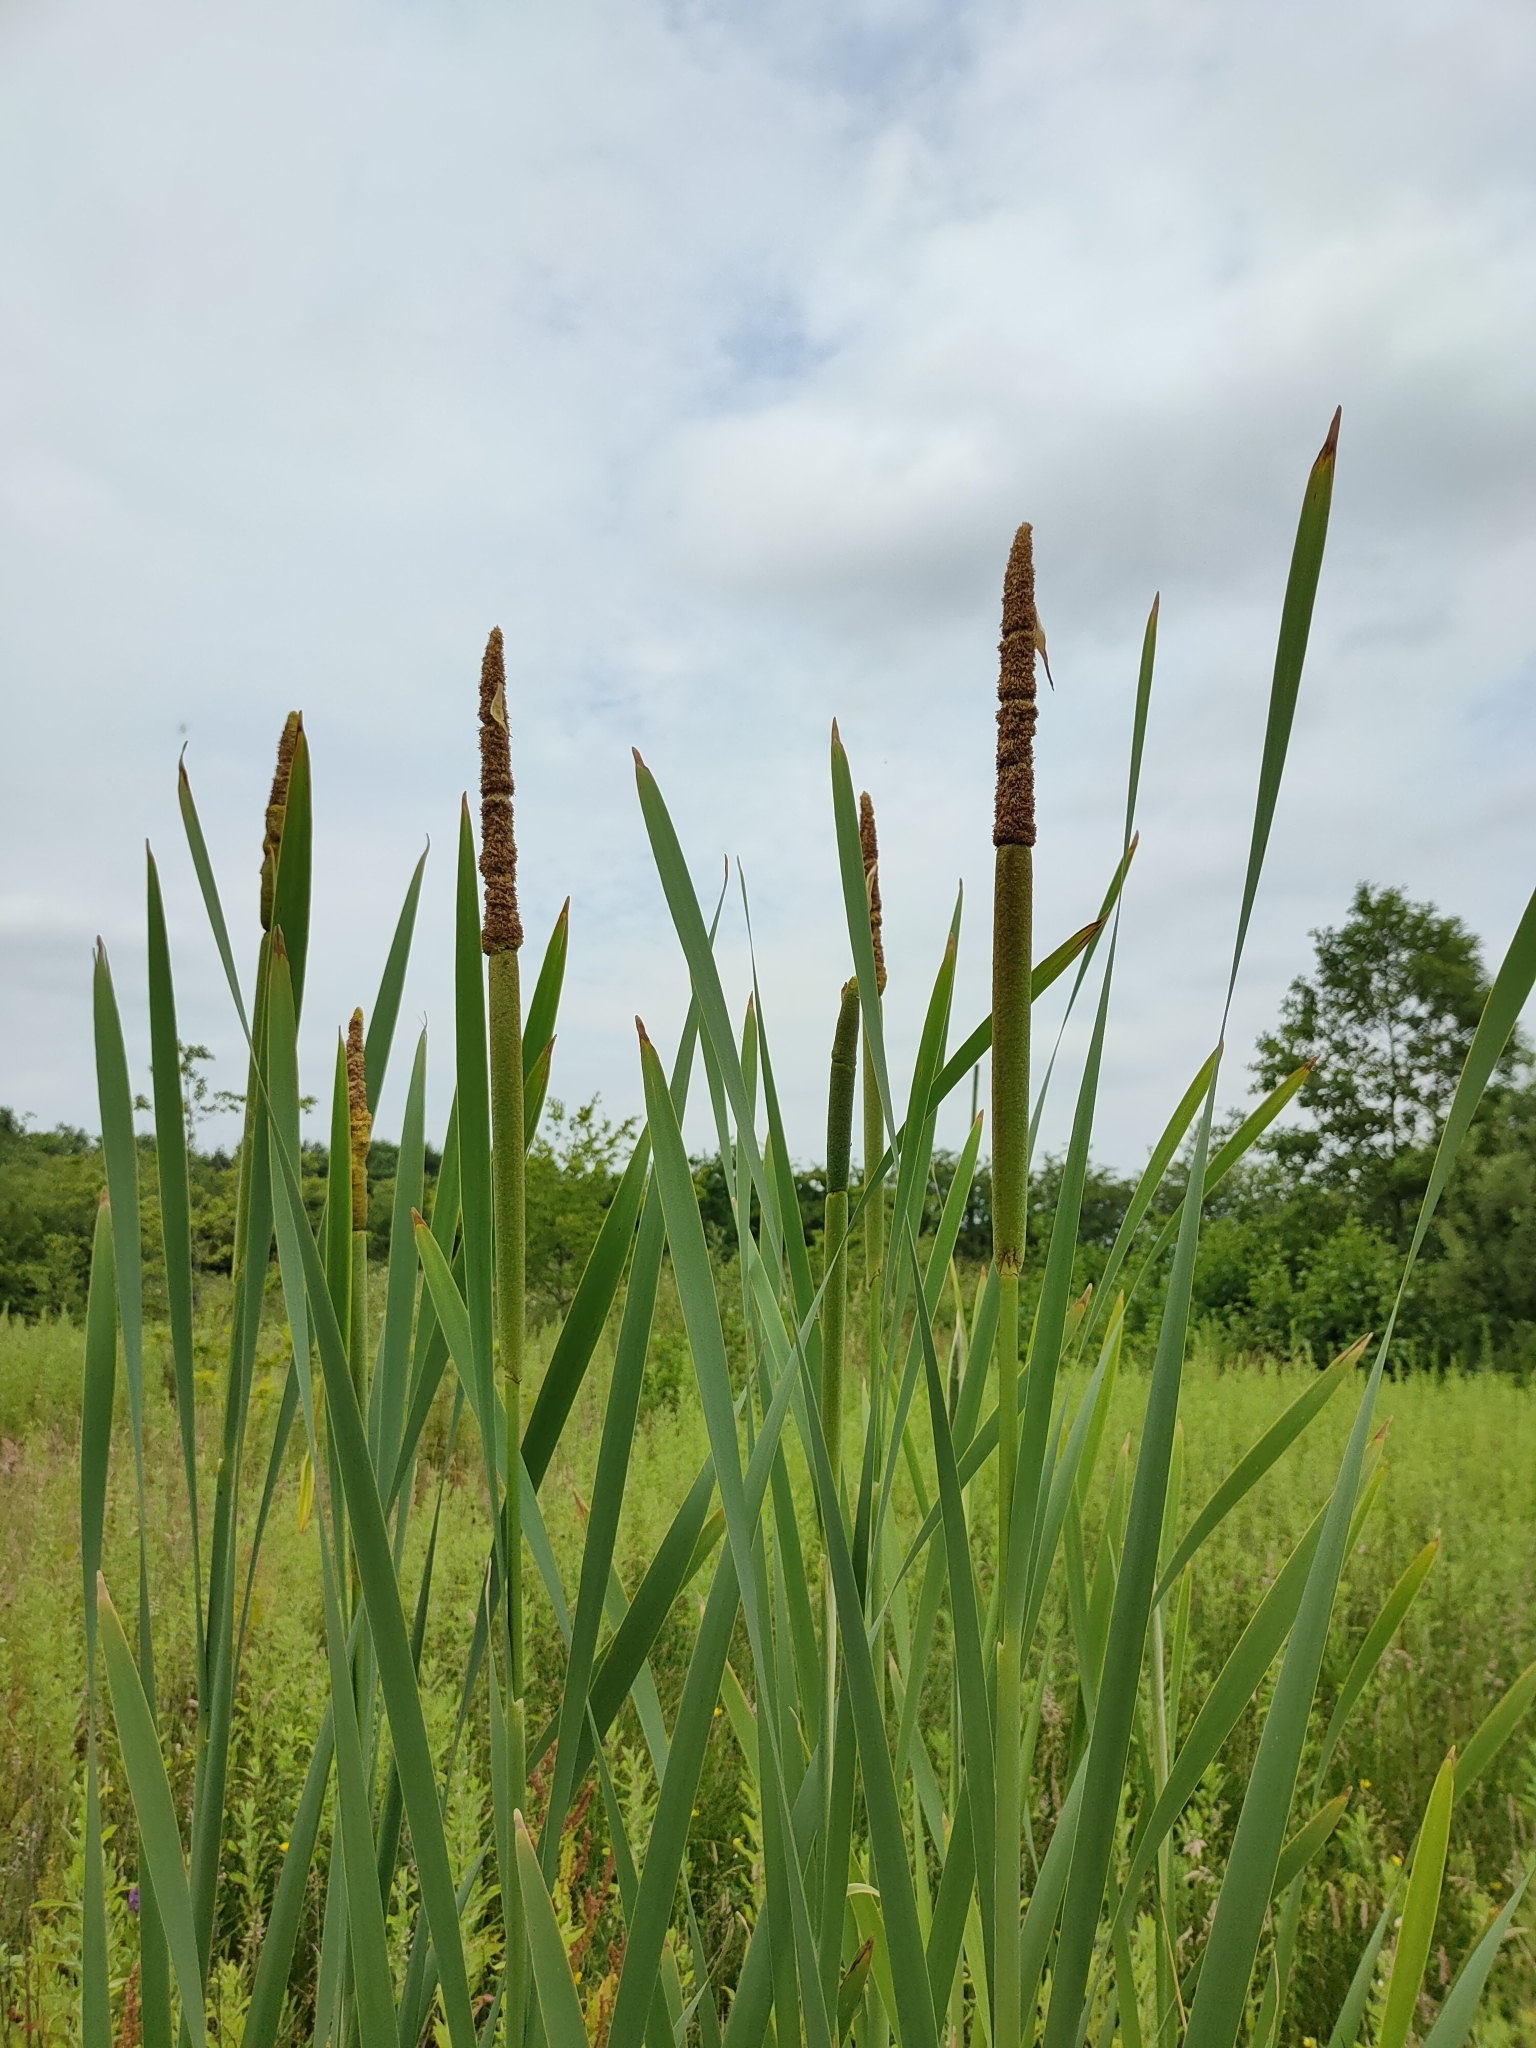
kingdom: Plantae
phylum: Tracheophyta
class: Liliopsida
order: Poales
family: Typhaceae
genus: Typha
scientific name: Typha latifolia
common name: Broadleaf cattail
